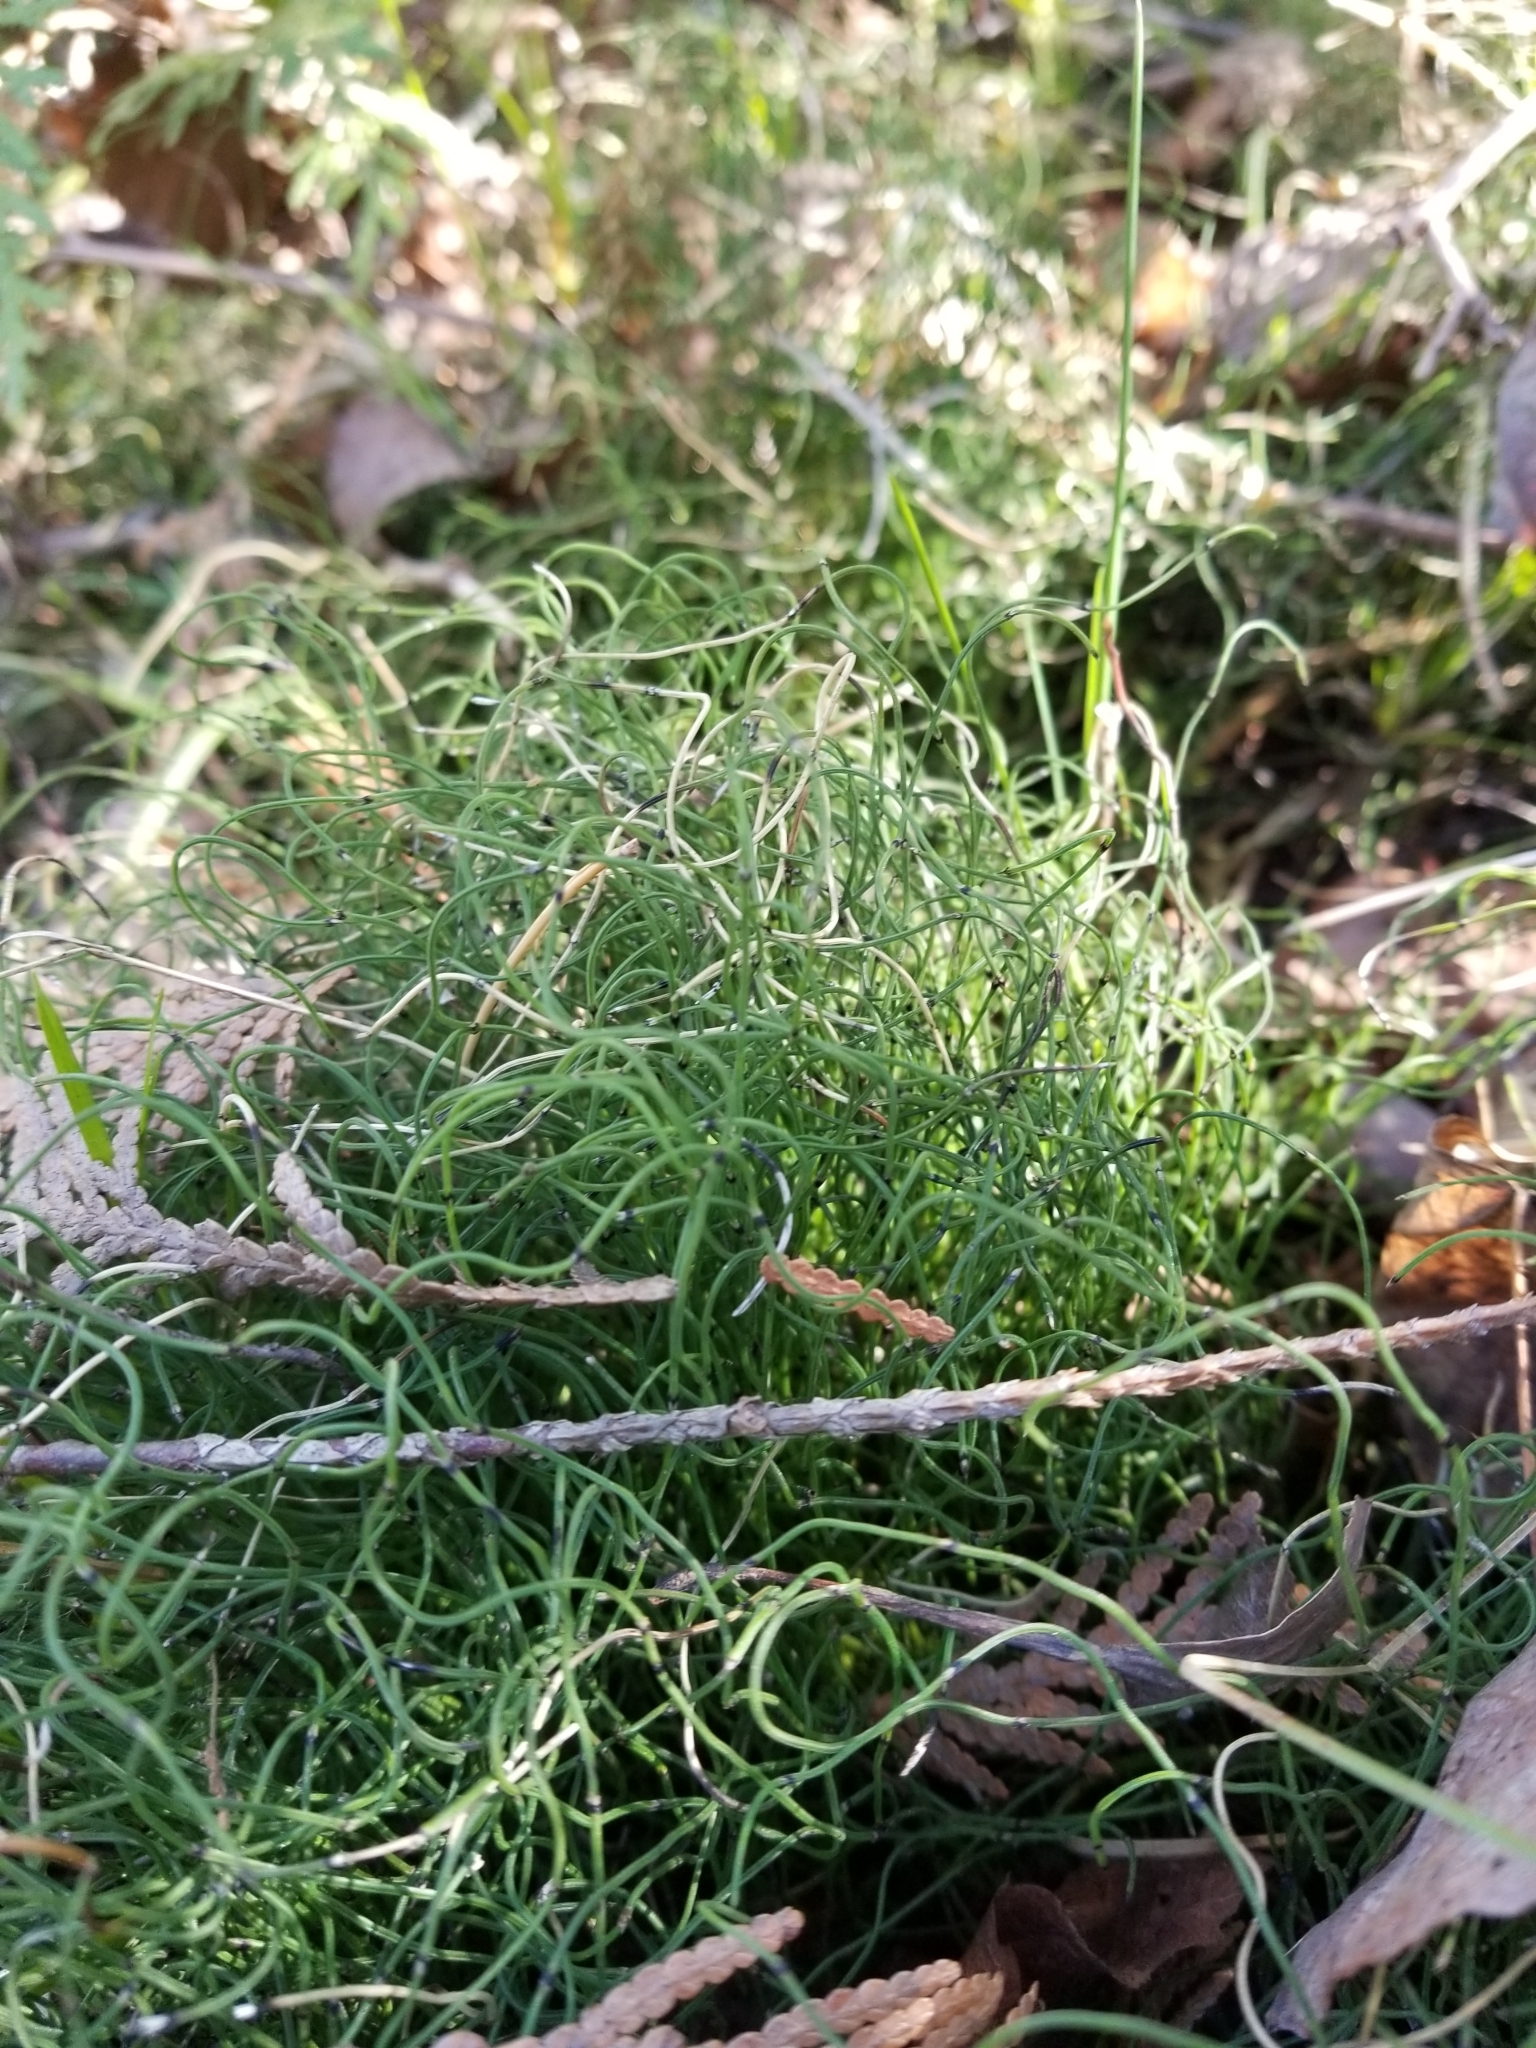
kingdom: Plantae
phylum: Tracheophyta
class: Polypodiopsida
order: Equisetales
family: Equisetaceae
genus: Equisetum
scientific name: Equisetum scirpoides
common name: Delicate horsetail
